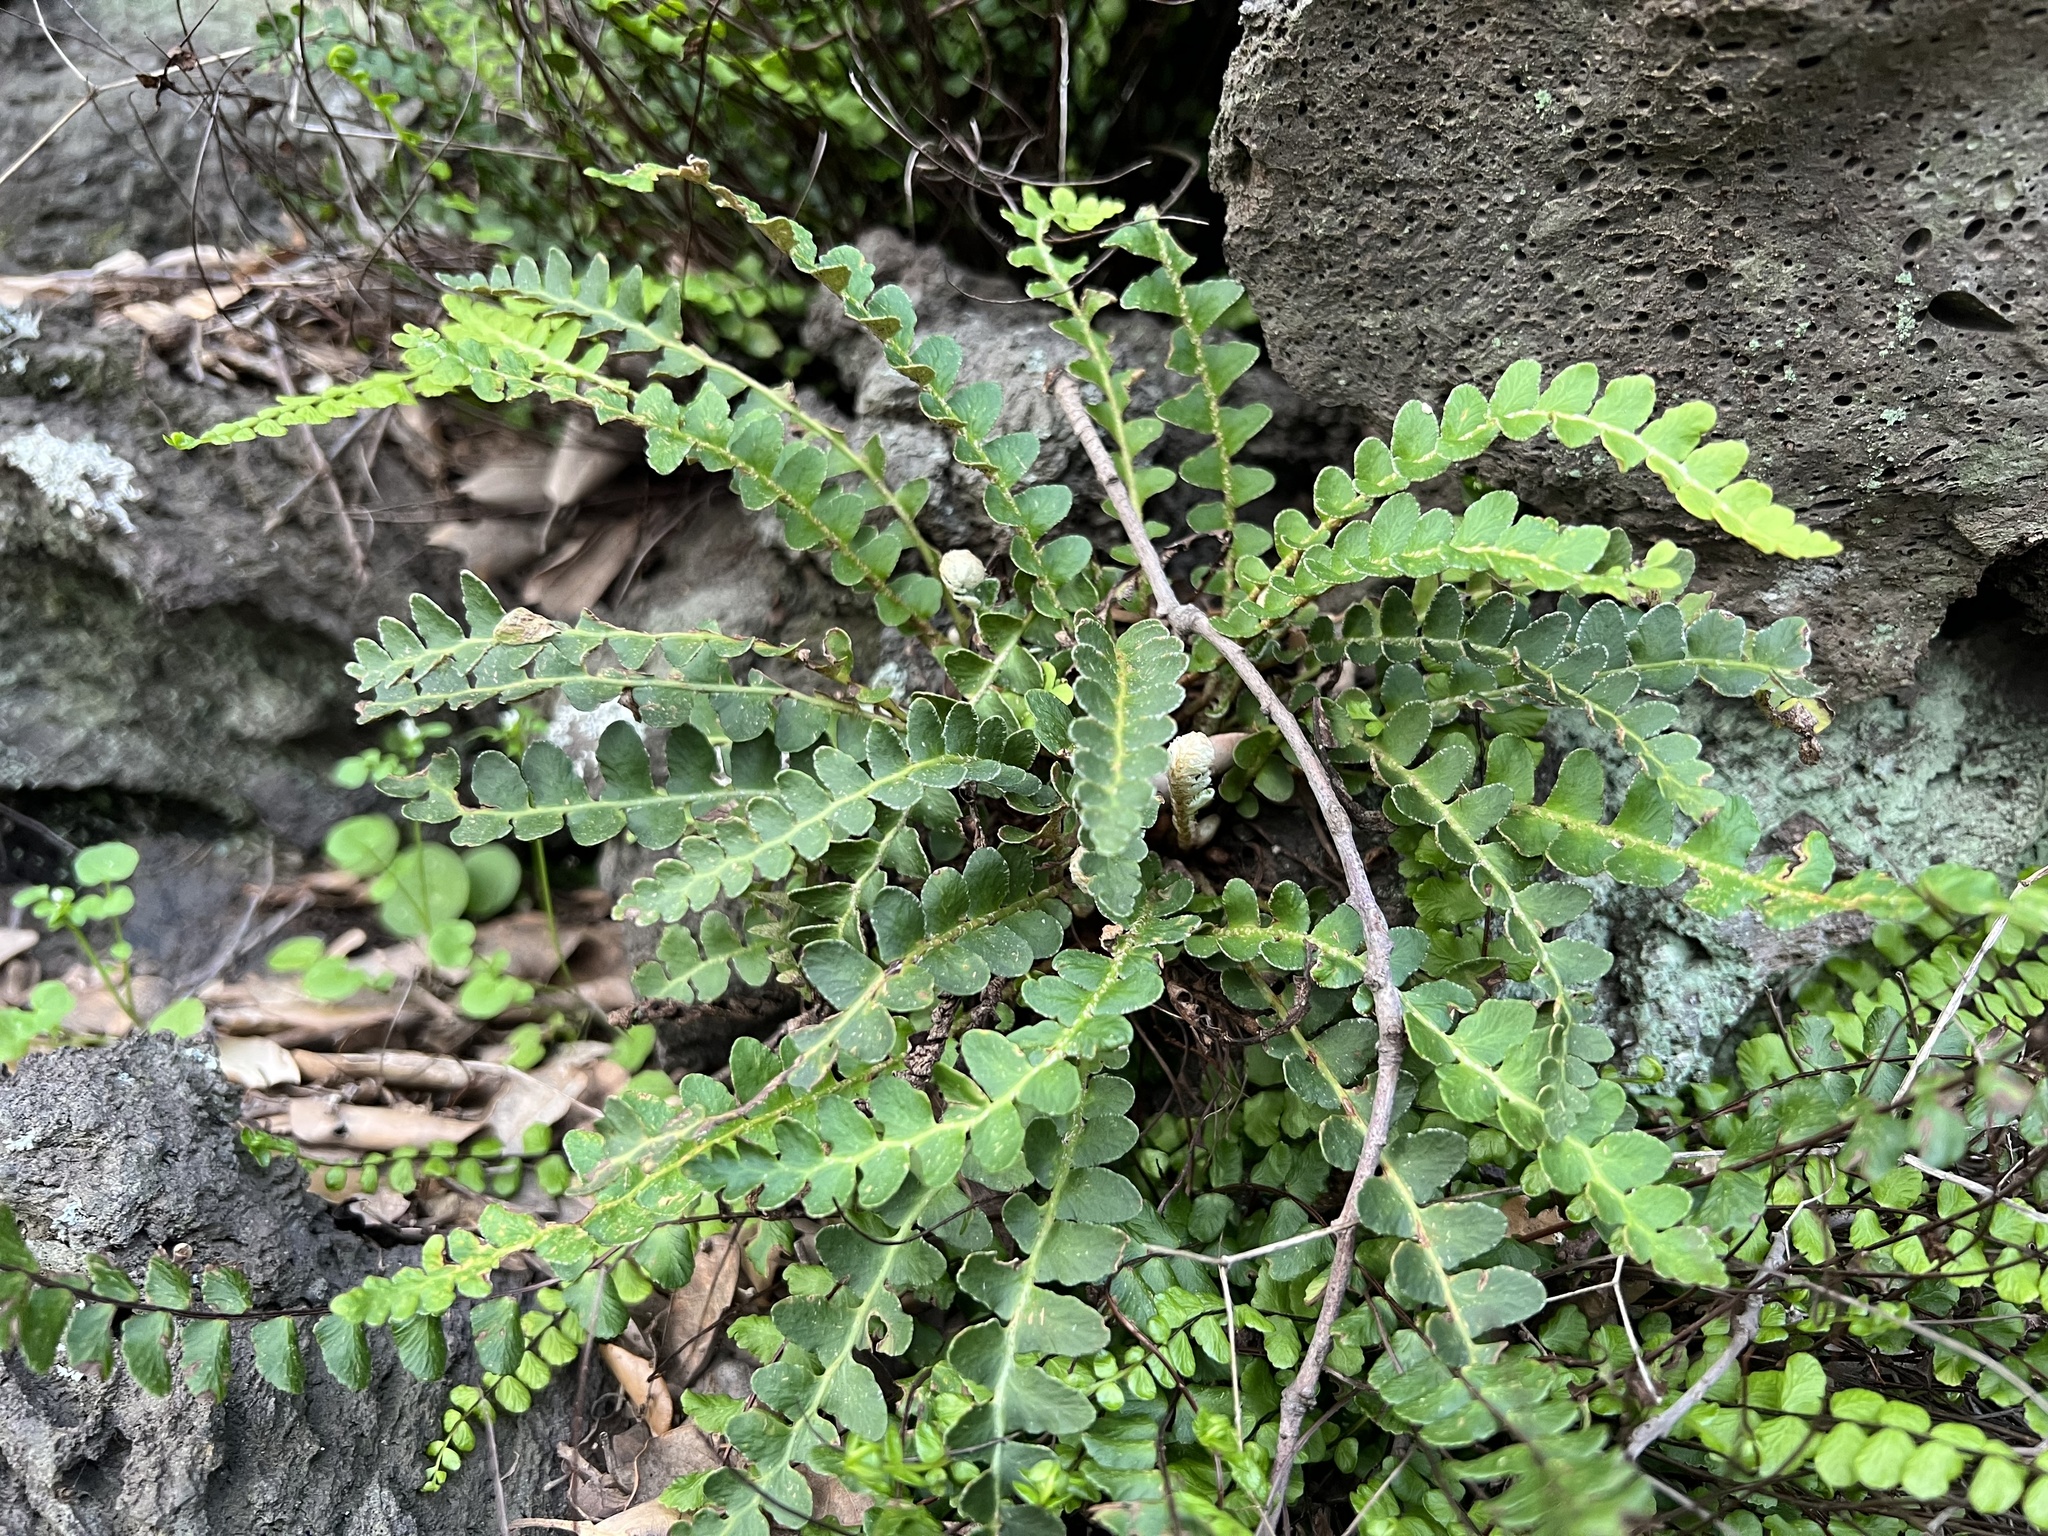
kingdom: Plantae
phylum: Tracheophyta
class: Polypodiopsida
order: Polypodiales
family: Aspleniaceae
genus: Asplenium
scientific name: Asplenium ceterach
